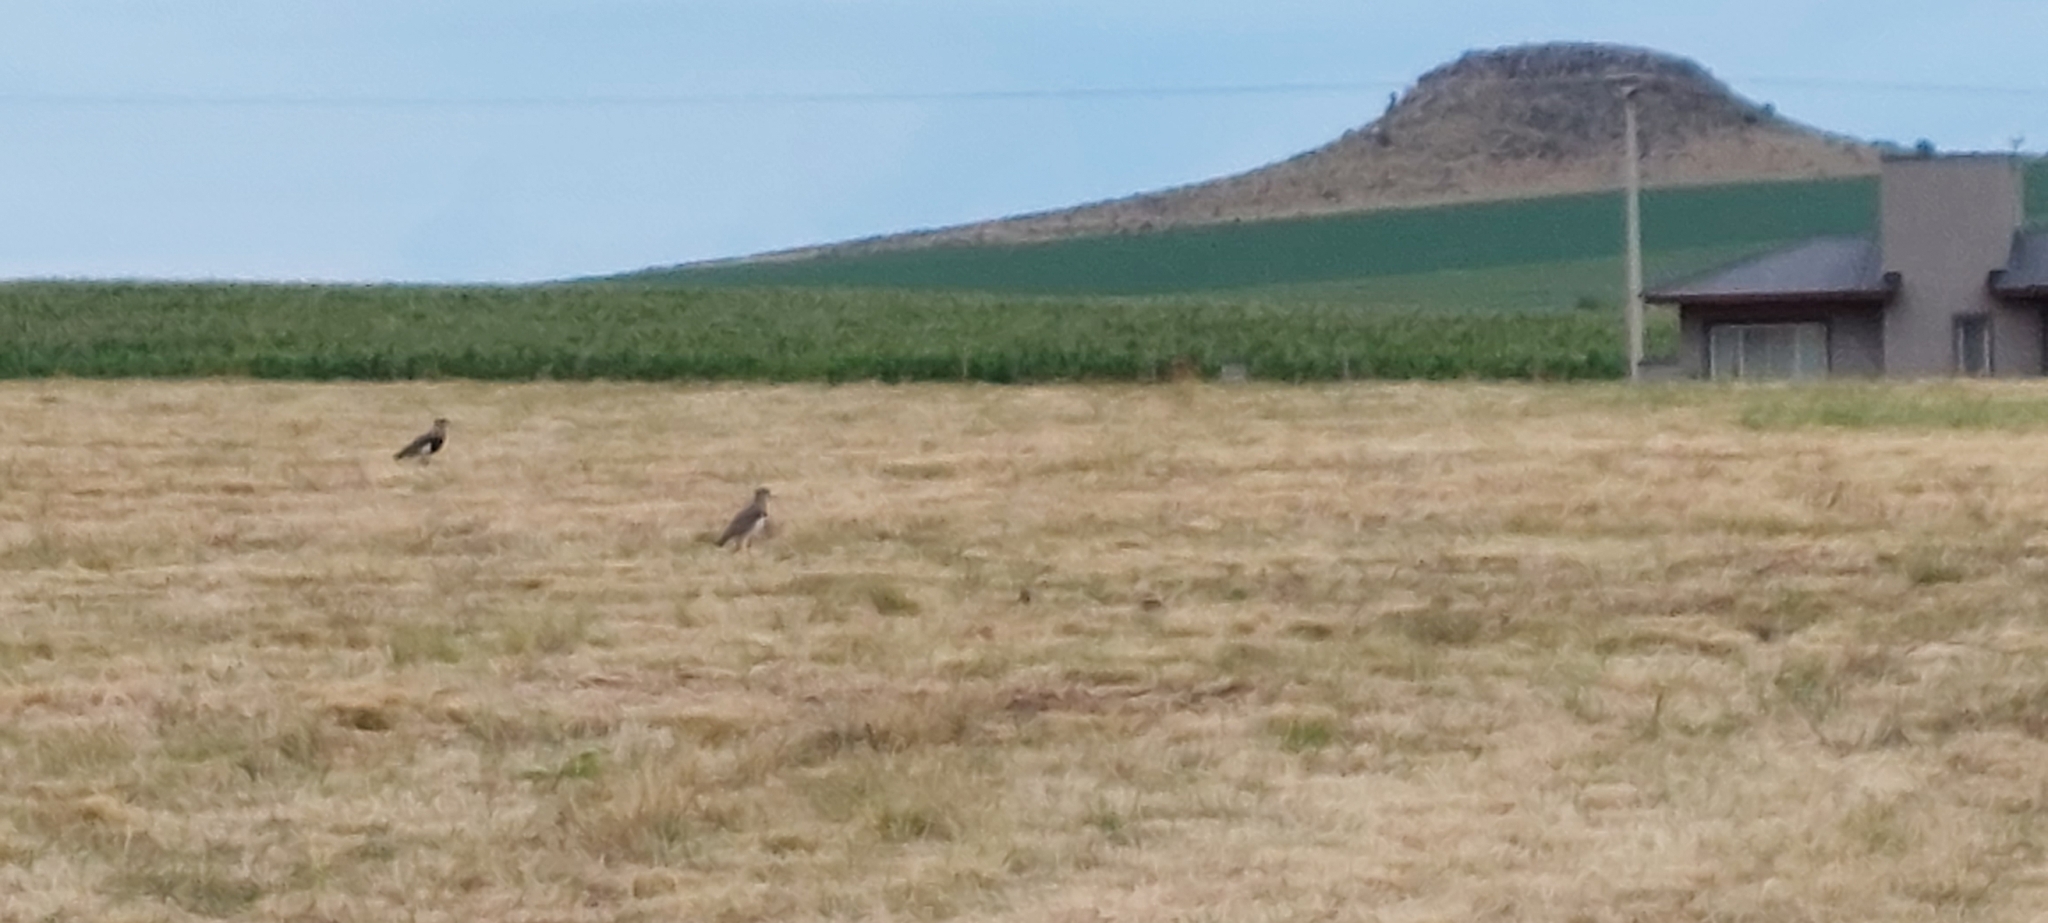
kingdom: Animalia
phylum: Chordata
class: Aves
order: Charadriiformes
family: Charadriidae
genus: Vanellus
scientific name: Vanellus chilensis
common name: Southern lapwing
